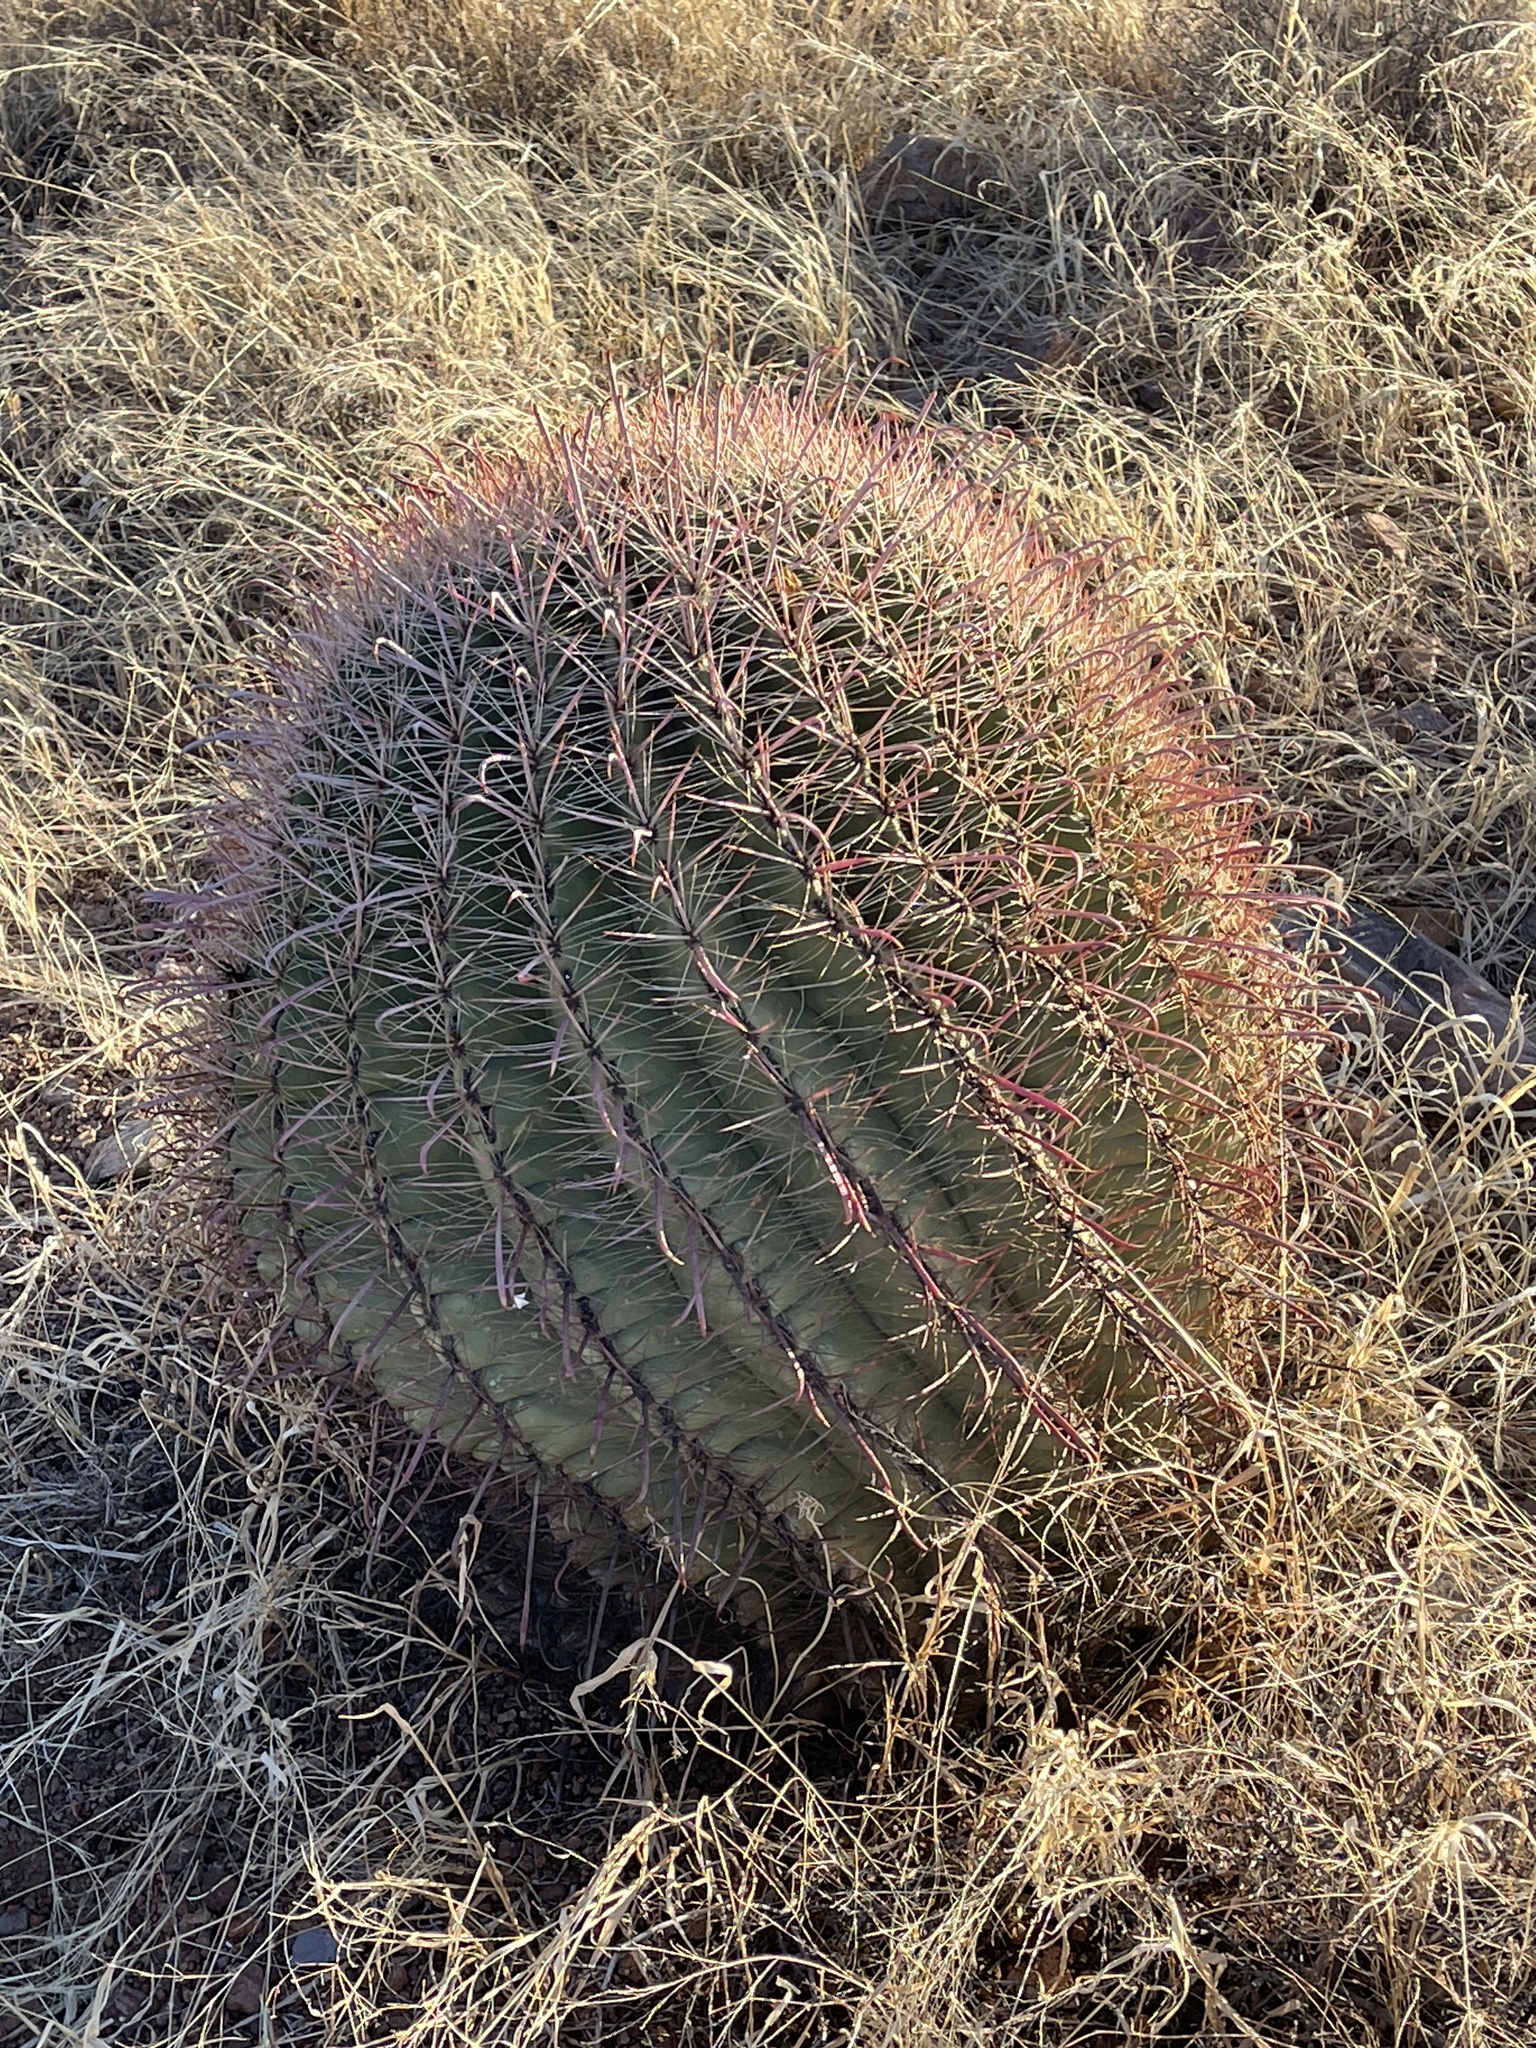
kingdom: Plantae
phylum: Tracheophyta
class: Magnoliopsida
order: Caryophyllales
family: Cactaceae
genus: Ferocactus
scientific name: Ferocactus wislizeni
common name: Candy barrel cactus
